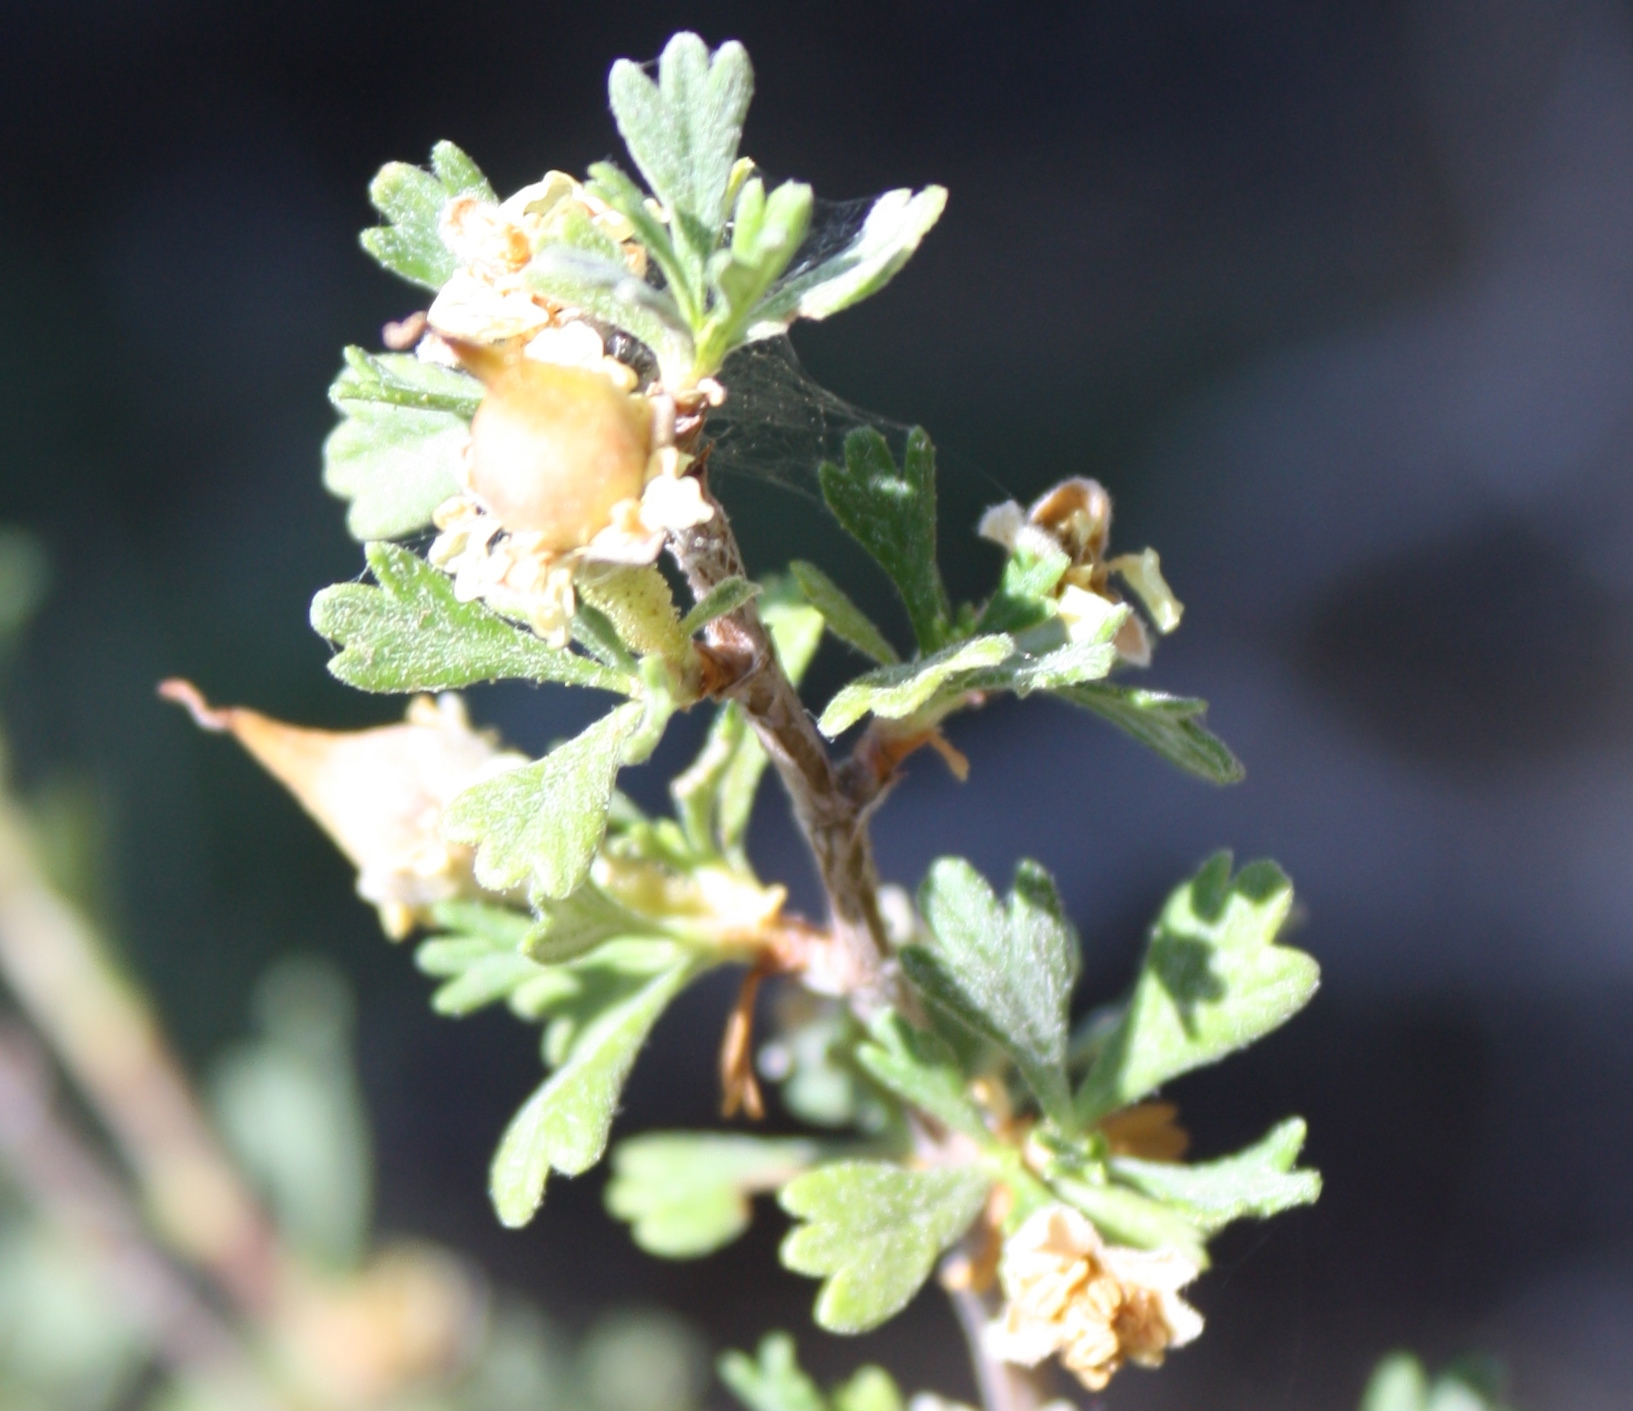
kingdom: Plantae
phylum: Tracheophyta
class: Magnoliopsida
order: Rosales
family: Rosaceae
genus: Purshia
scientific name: Purshia tridentata
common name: Antelope bitterbrush
